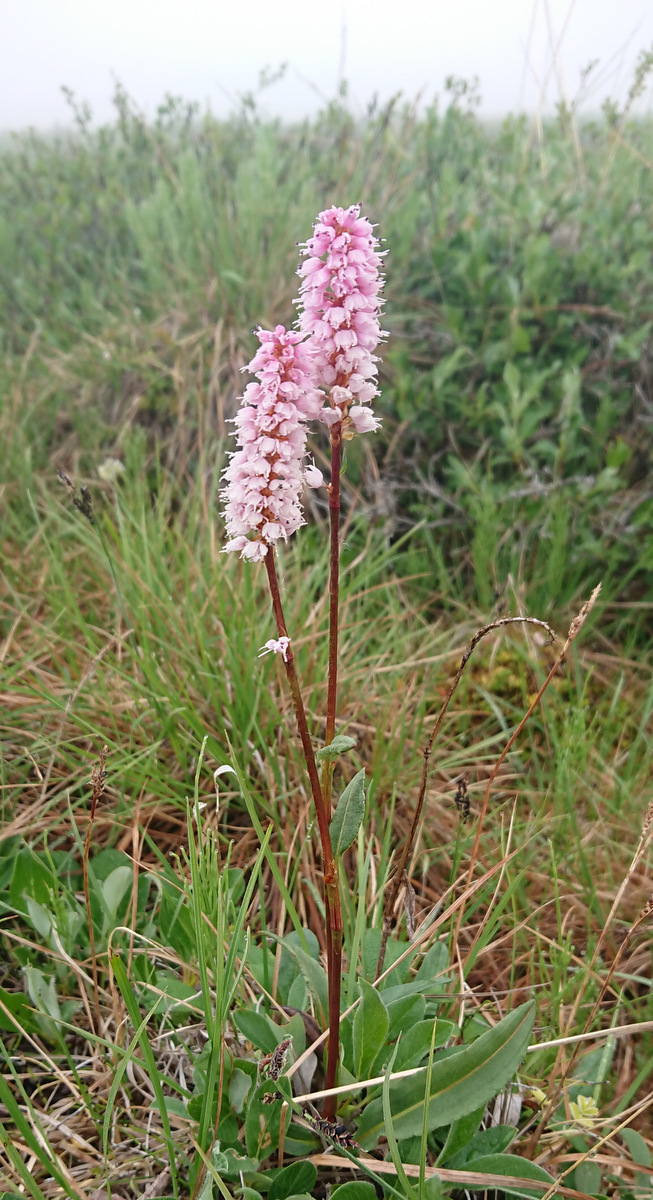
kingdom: Plantae
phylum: Tracheophyta
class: Magnoliopsida
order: Caryophyllales
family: Polygonaceae
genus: Bistorta
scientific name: Bistorta plumosa
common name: Meadow bistort
